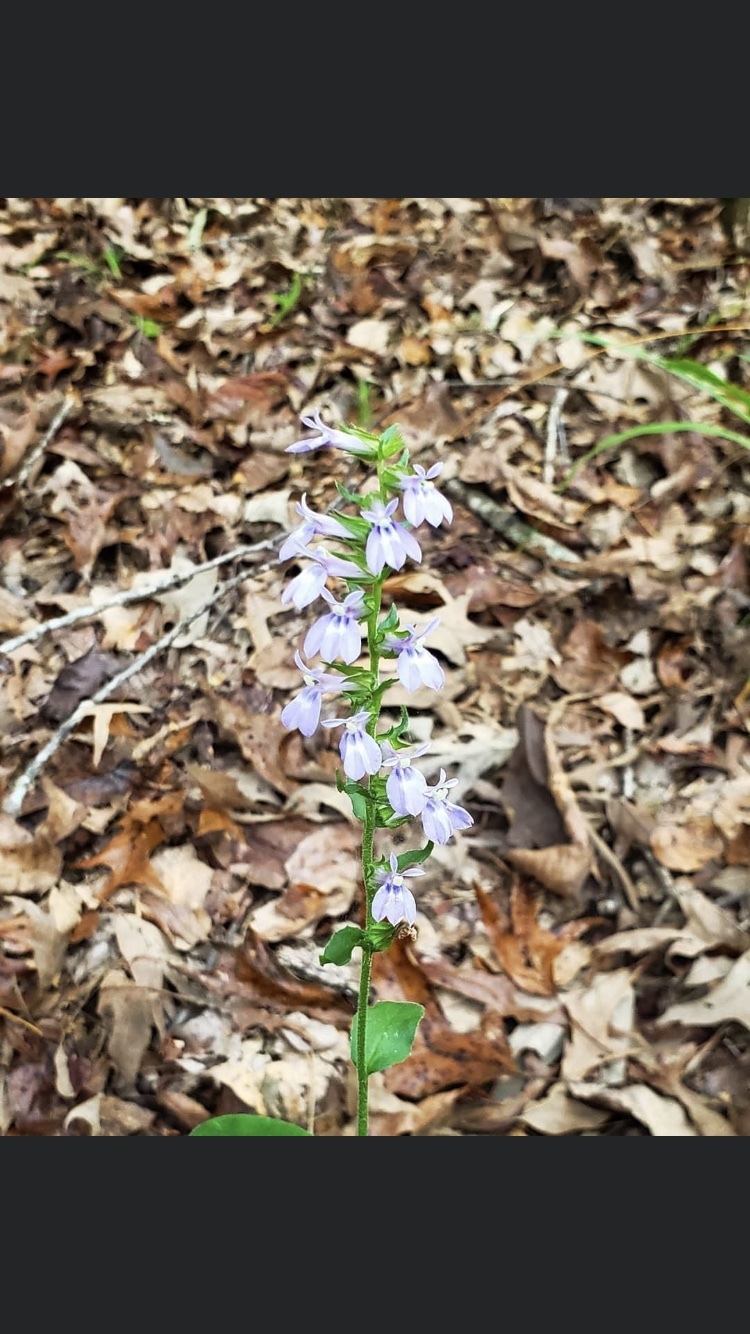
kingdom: Plantae
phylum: Tracheophyta
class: Magnoliopsida
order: Asterales
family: Campanulaceae
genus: Lobelia
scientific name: Lobelia puberula
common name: Purple dewdrop
